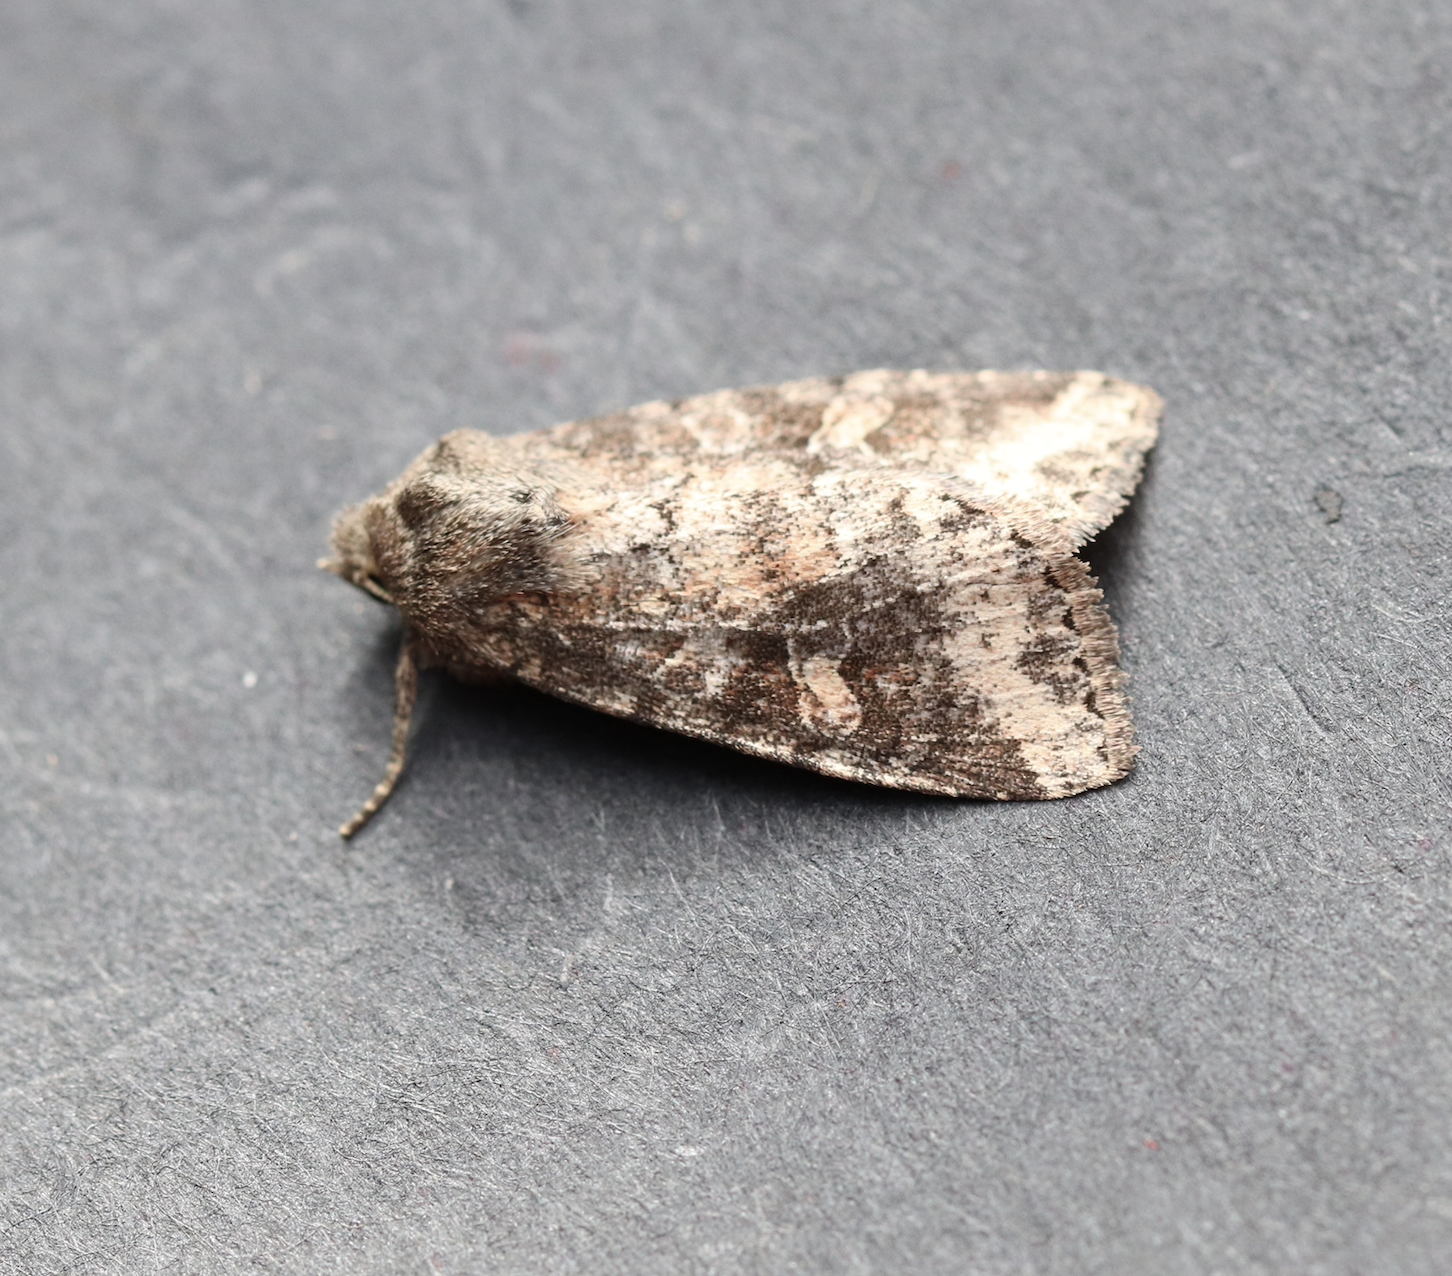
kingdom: Animalia
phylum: Arthropoda
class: Insecta
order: Lepidoptera
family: Noctuidae
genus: Parastichtis
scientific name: Parastichtis suspecta
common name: Suspected
